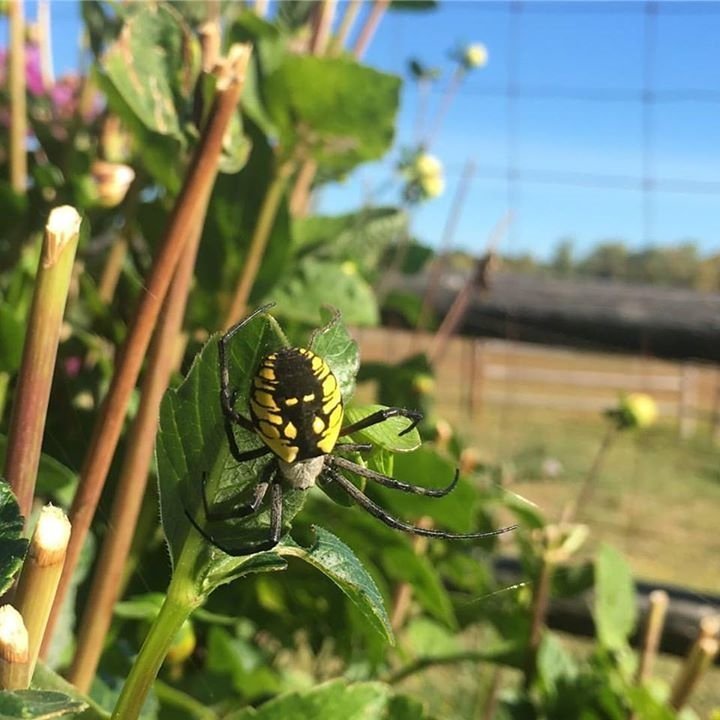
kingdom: Animalia
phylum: Arthropoda
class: Arachnida
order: Araneae
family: Araneidae
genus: Argiope
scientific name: Argiope aurantia
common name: Orb weavers
